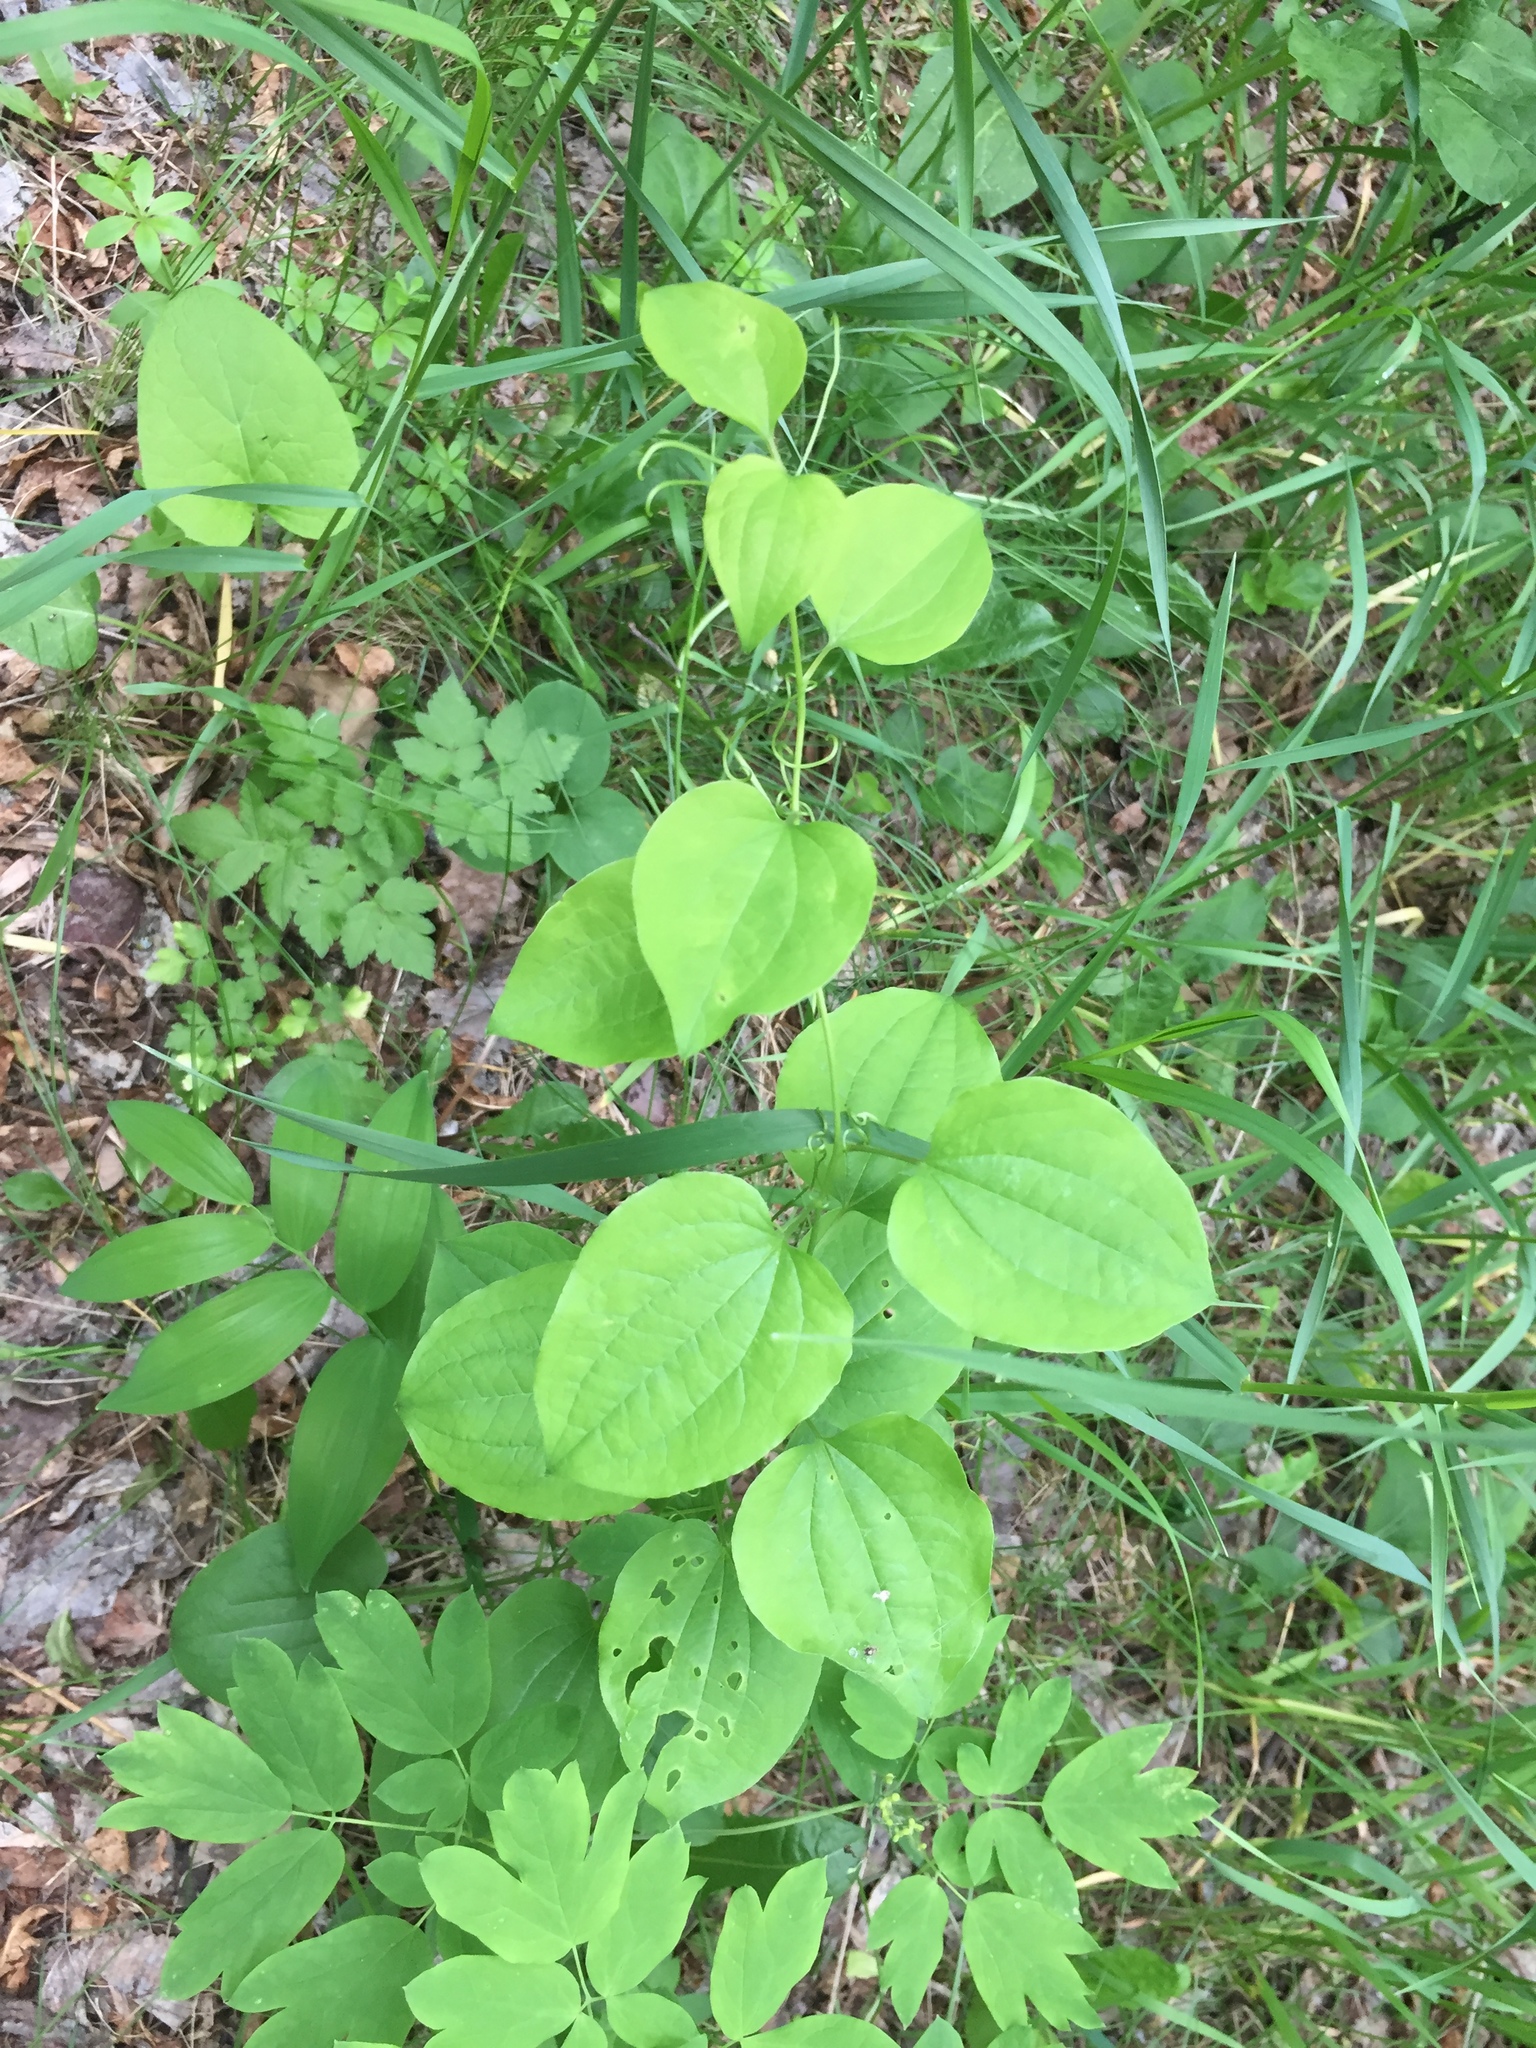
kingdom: Plantae
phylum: Tracheophyta
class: Liliopsida
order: Liliales
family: Smilacaceae
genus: Smilax
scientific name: Smilax lasioneura
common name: Blue ridge carrionflower
